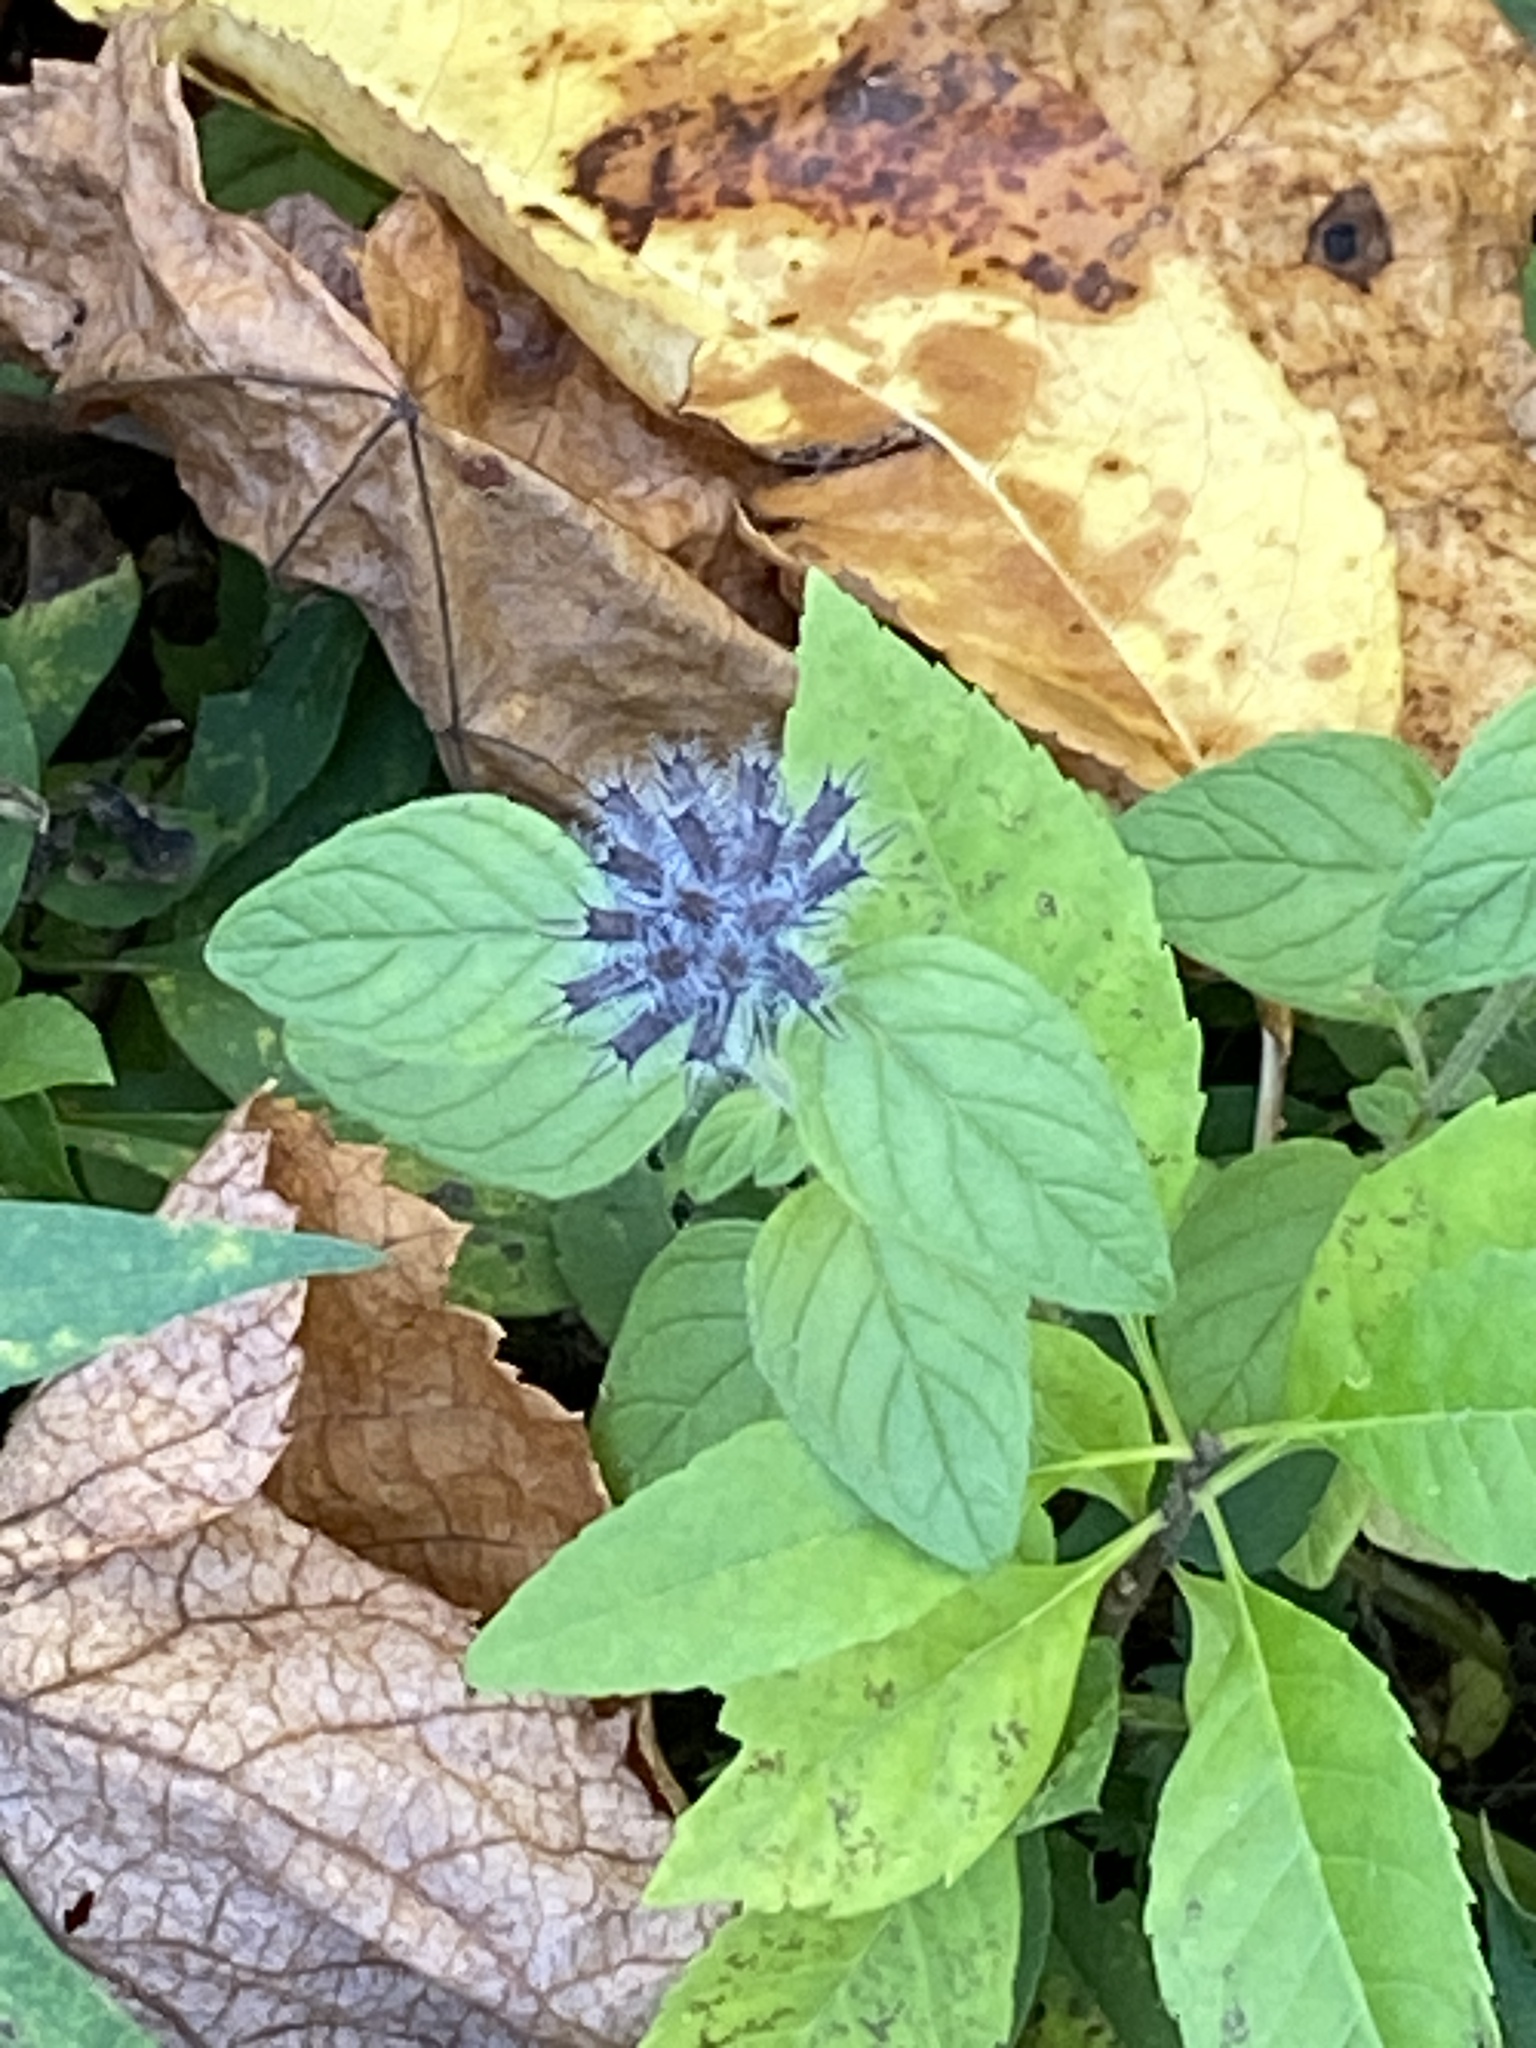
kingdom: Plantae
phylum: Tracheophyta
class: Magnoliopsida
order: Lamiales
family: Lamiaceae
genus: Clinopodium
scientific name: Clinopodium vulgare
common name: Wild basil
